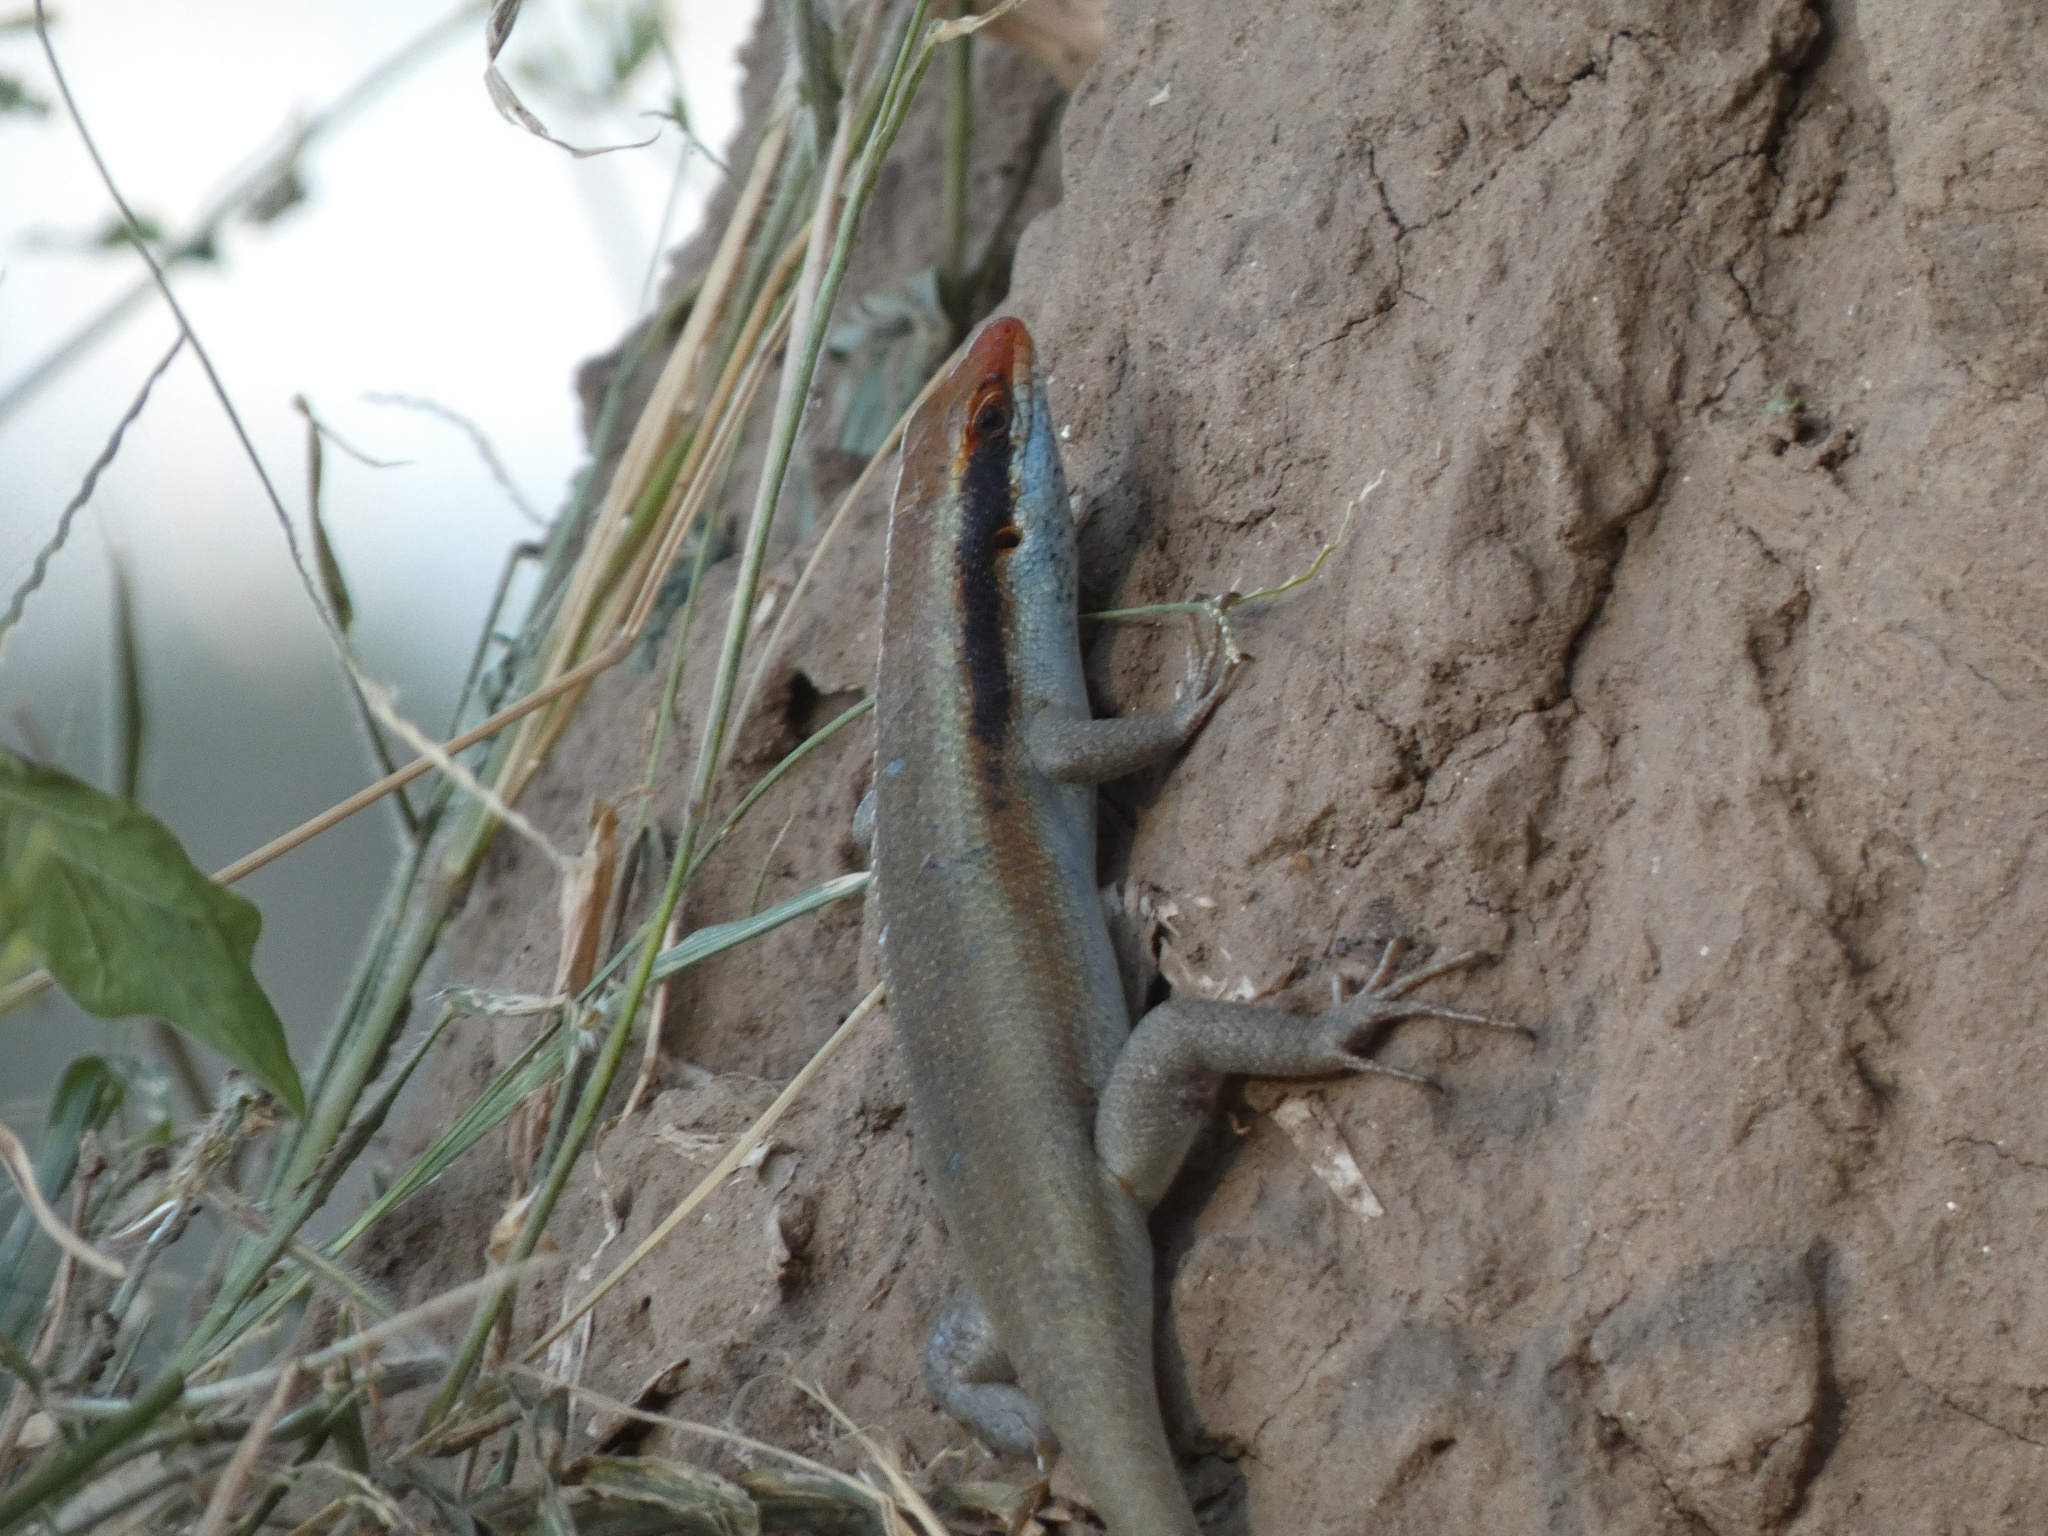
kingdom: Animalia
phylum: Chordata
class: Squamata
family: Scincidae
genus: Trachylepis
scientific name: Trachylepis wahlbergii
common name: Wahlberg’s striped skink
